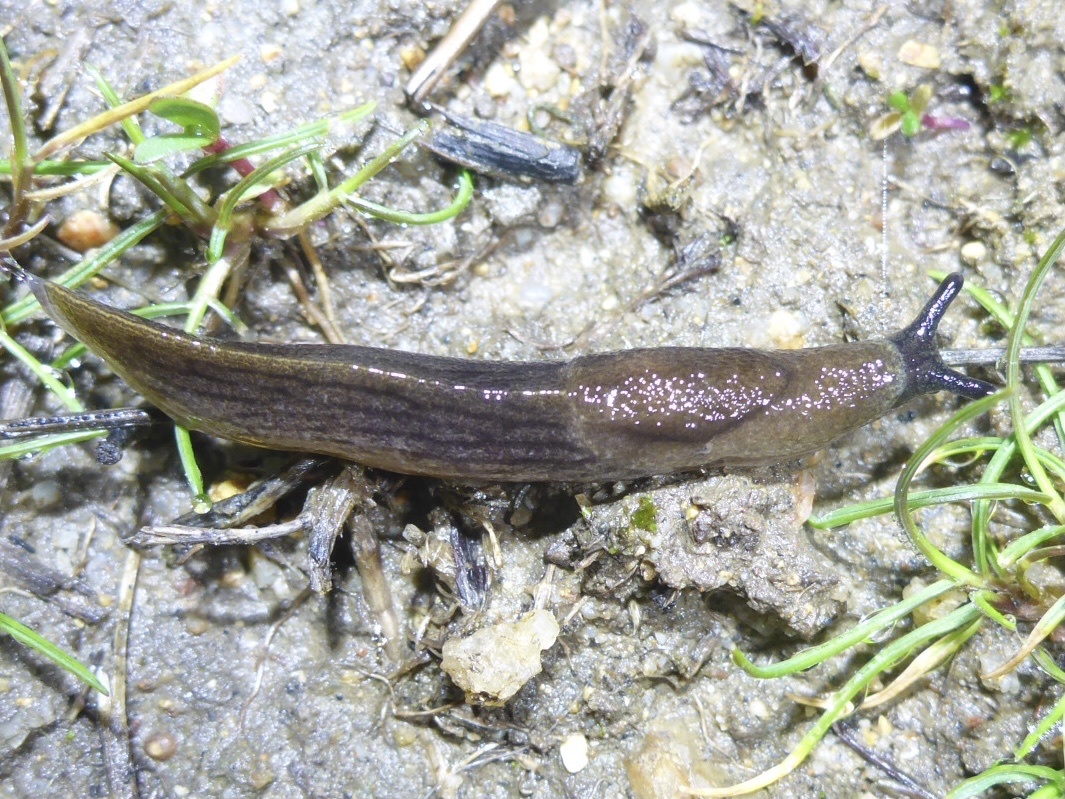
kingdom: Animalia
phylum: Mollusca
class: Gastropoda
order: Stylommatophora
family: Milacidae
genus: Milax
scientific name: Milax gagates
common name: Greenhouse slug
